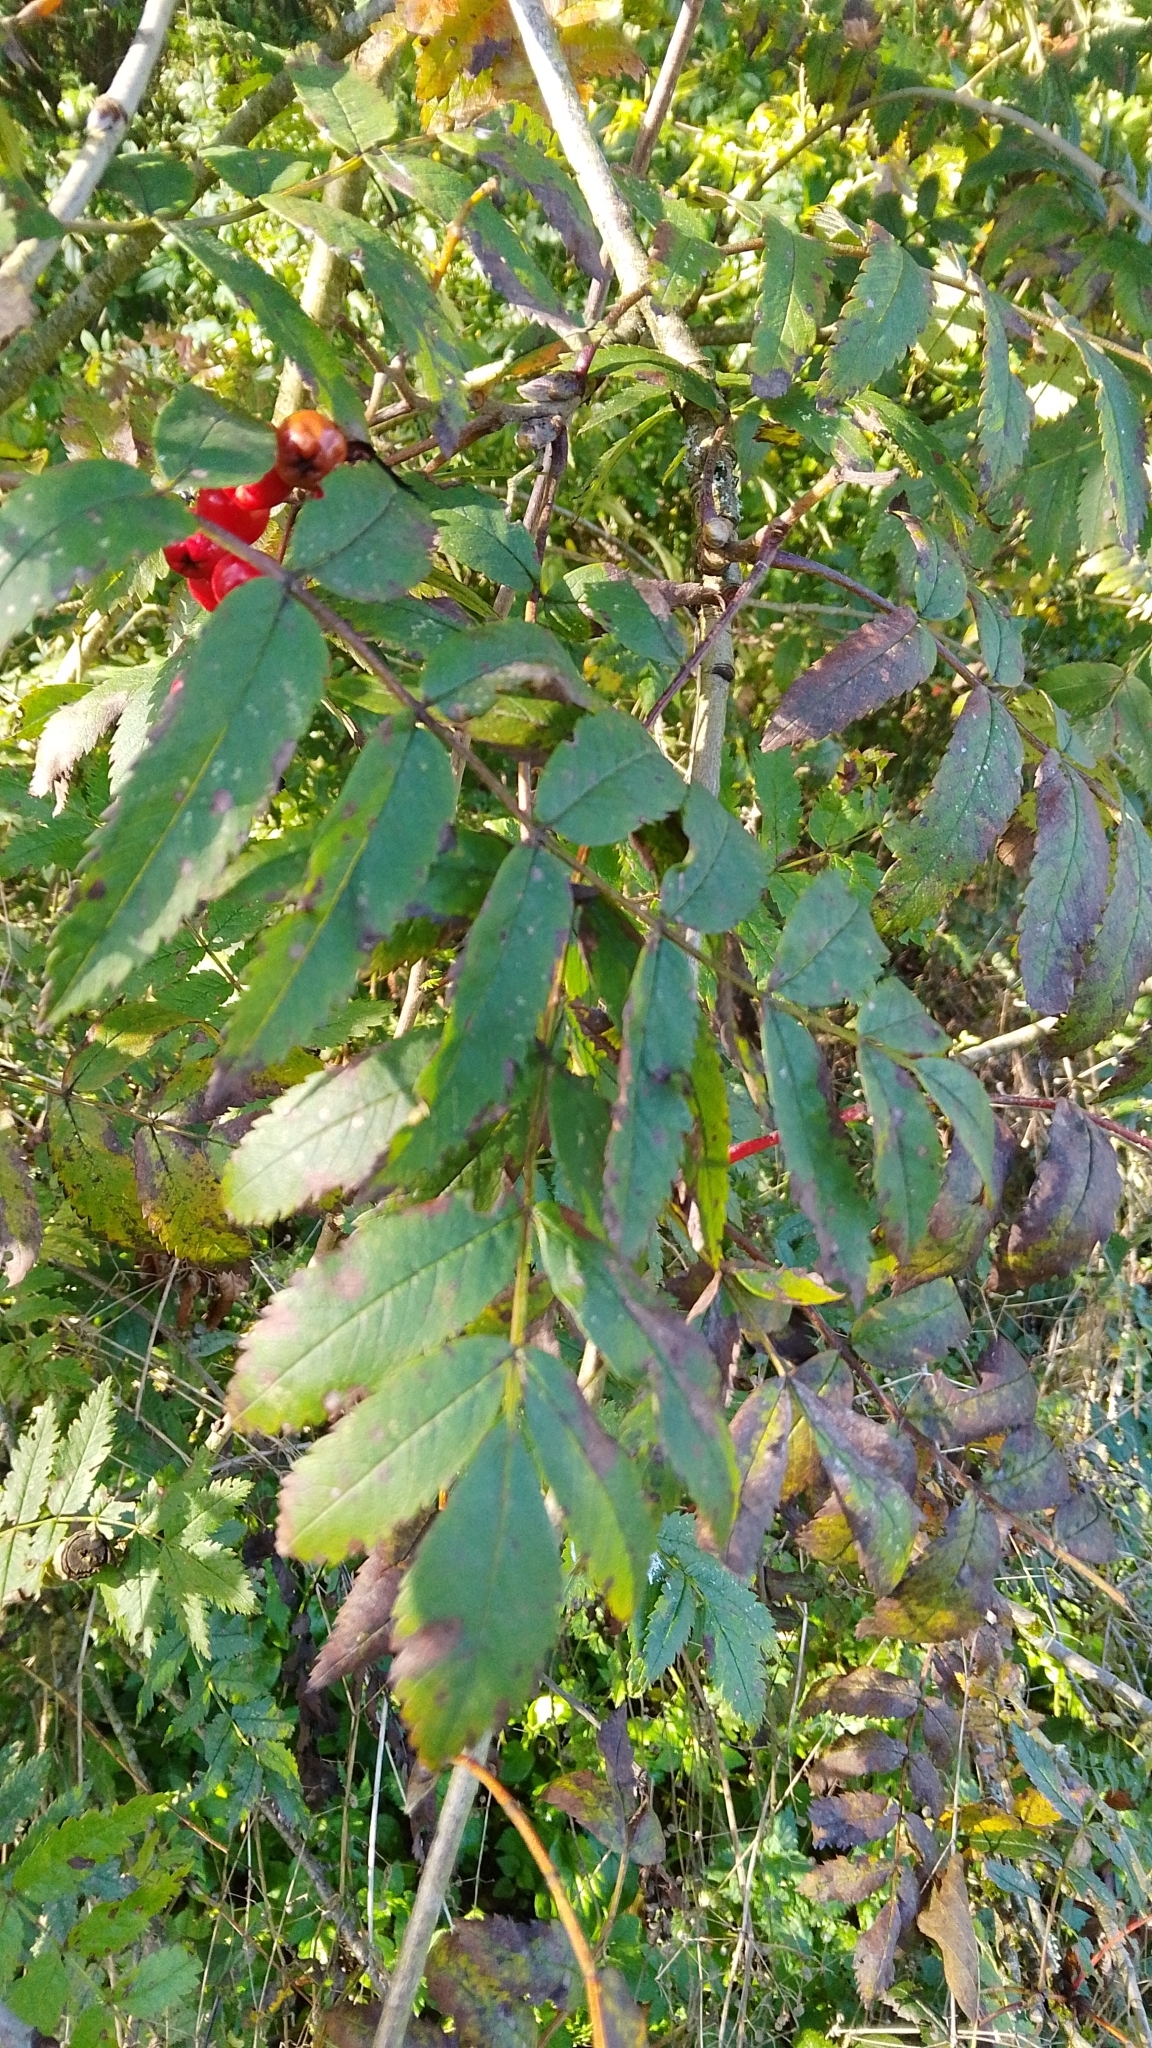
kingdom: Plantae
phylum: Tracheophyta
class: Magnoliopsida
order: Rosales
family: Rosaceae
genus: Sorbus
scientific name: Sorbus aucuparia
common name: Rowan
